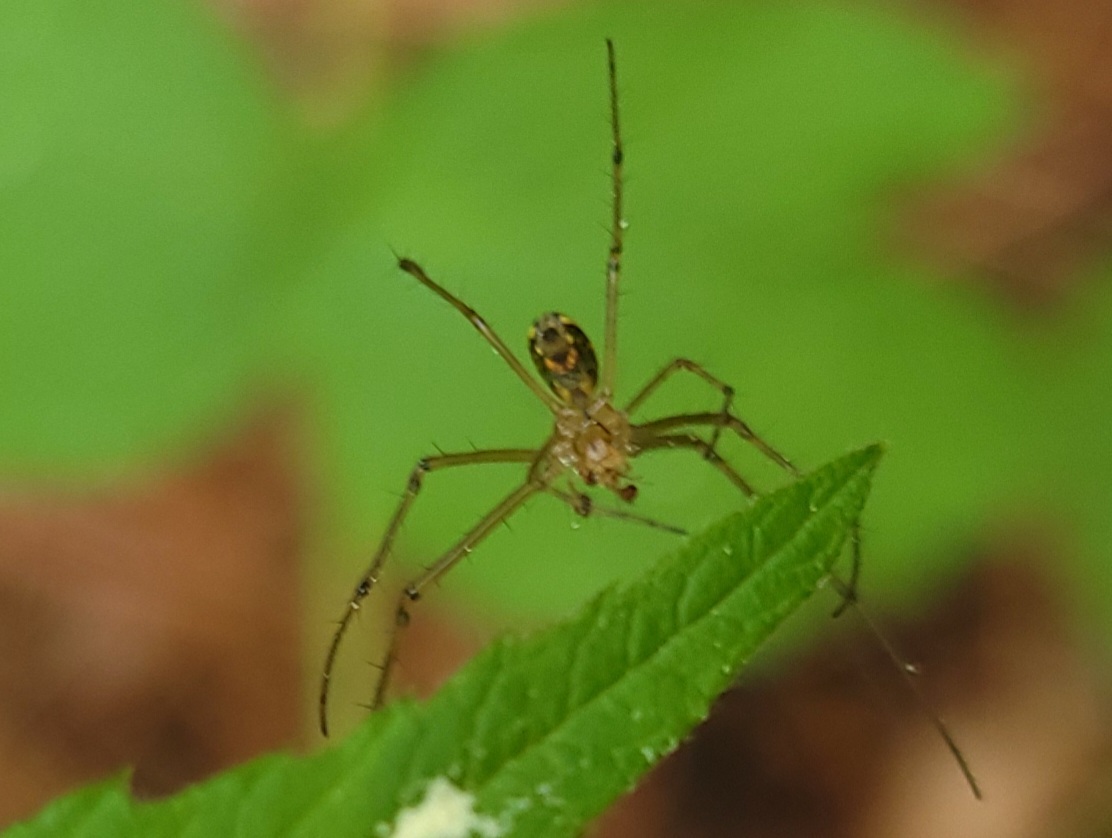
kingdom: Animalia
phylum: Arthropoda
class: Arachnida
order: Araneae
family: Tetragnathidae
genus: Leucauge
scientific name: Leucauge venusta
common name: Longjawed orb weavers
